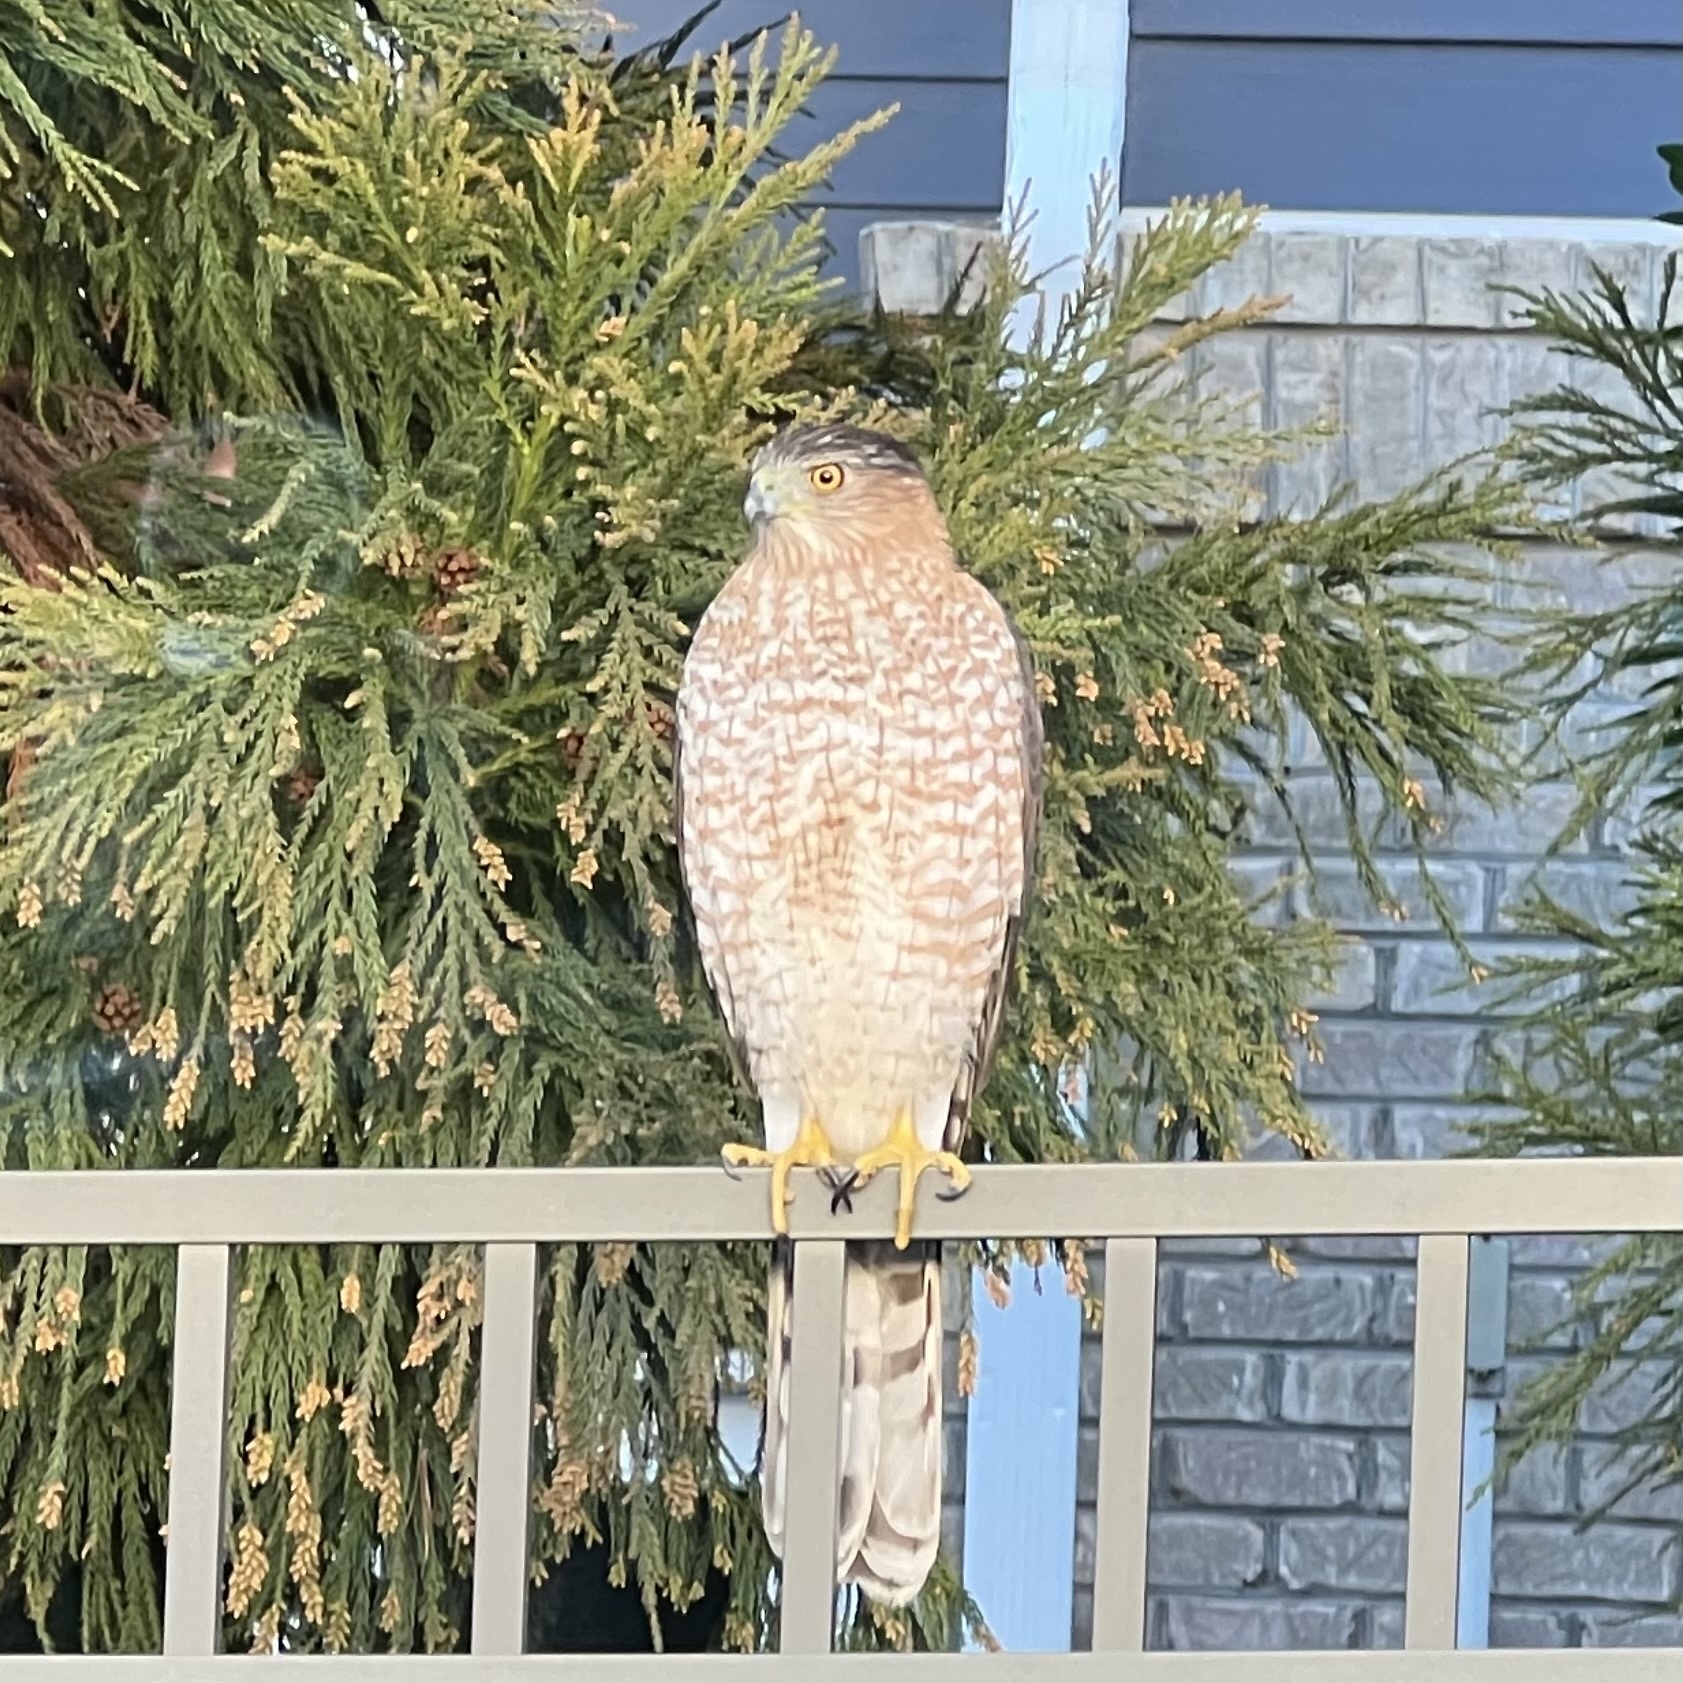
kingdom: Animalia
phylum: Chordata
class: Aves
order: Accipitriformes
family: Accipitridae
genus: Accipiter
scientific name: Accipiter cooperii
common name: Cooper's hawk
